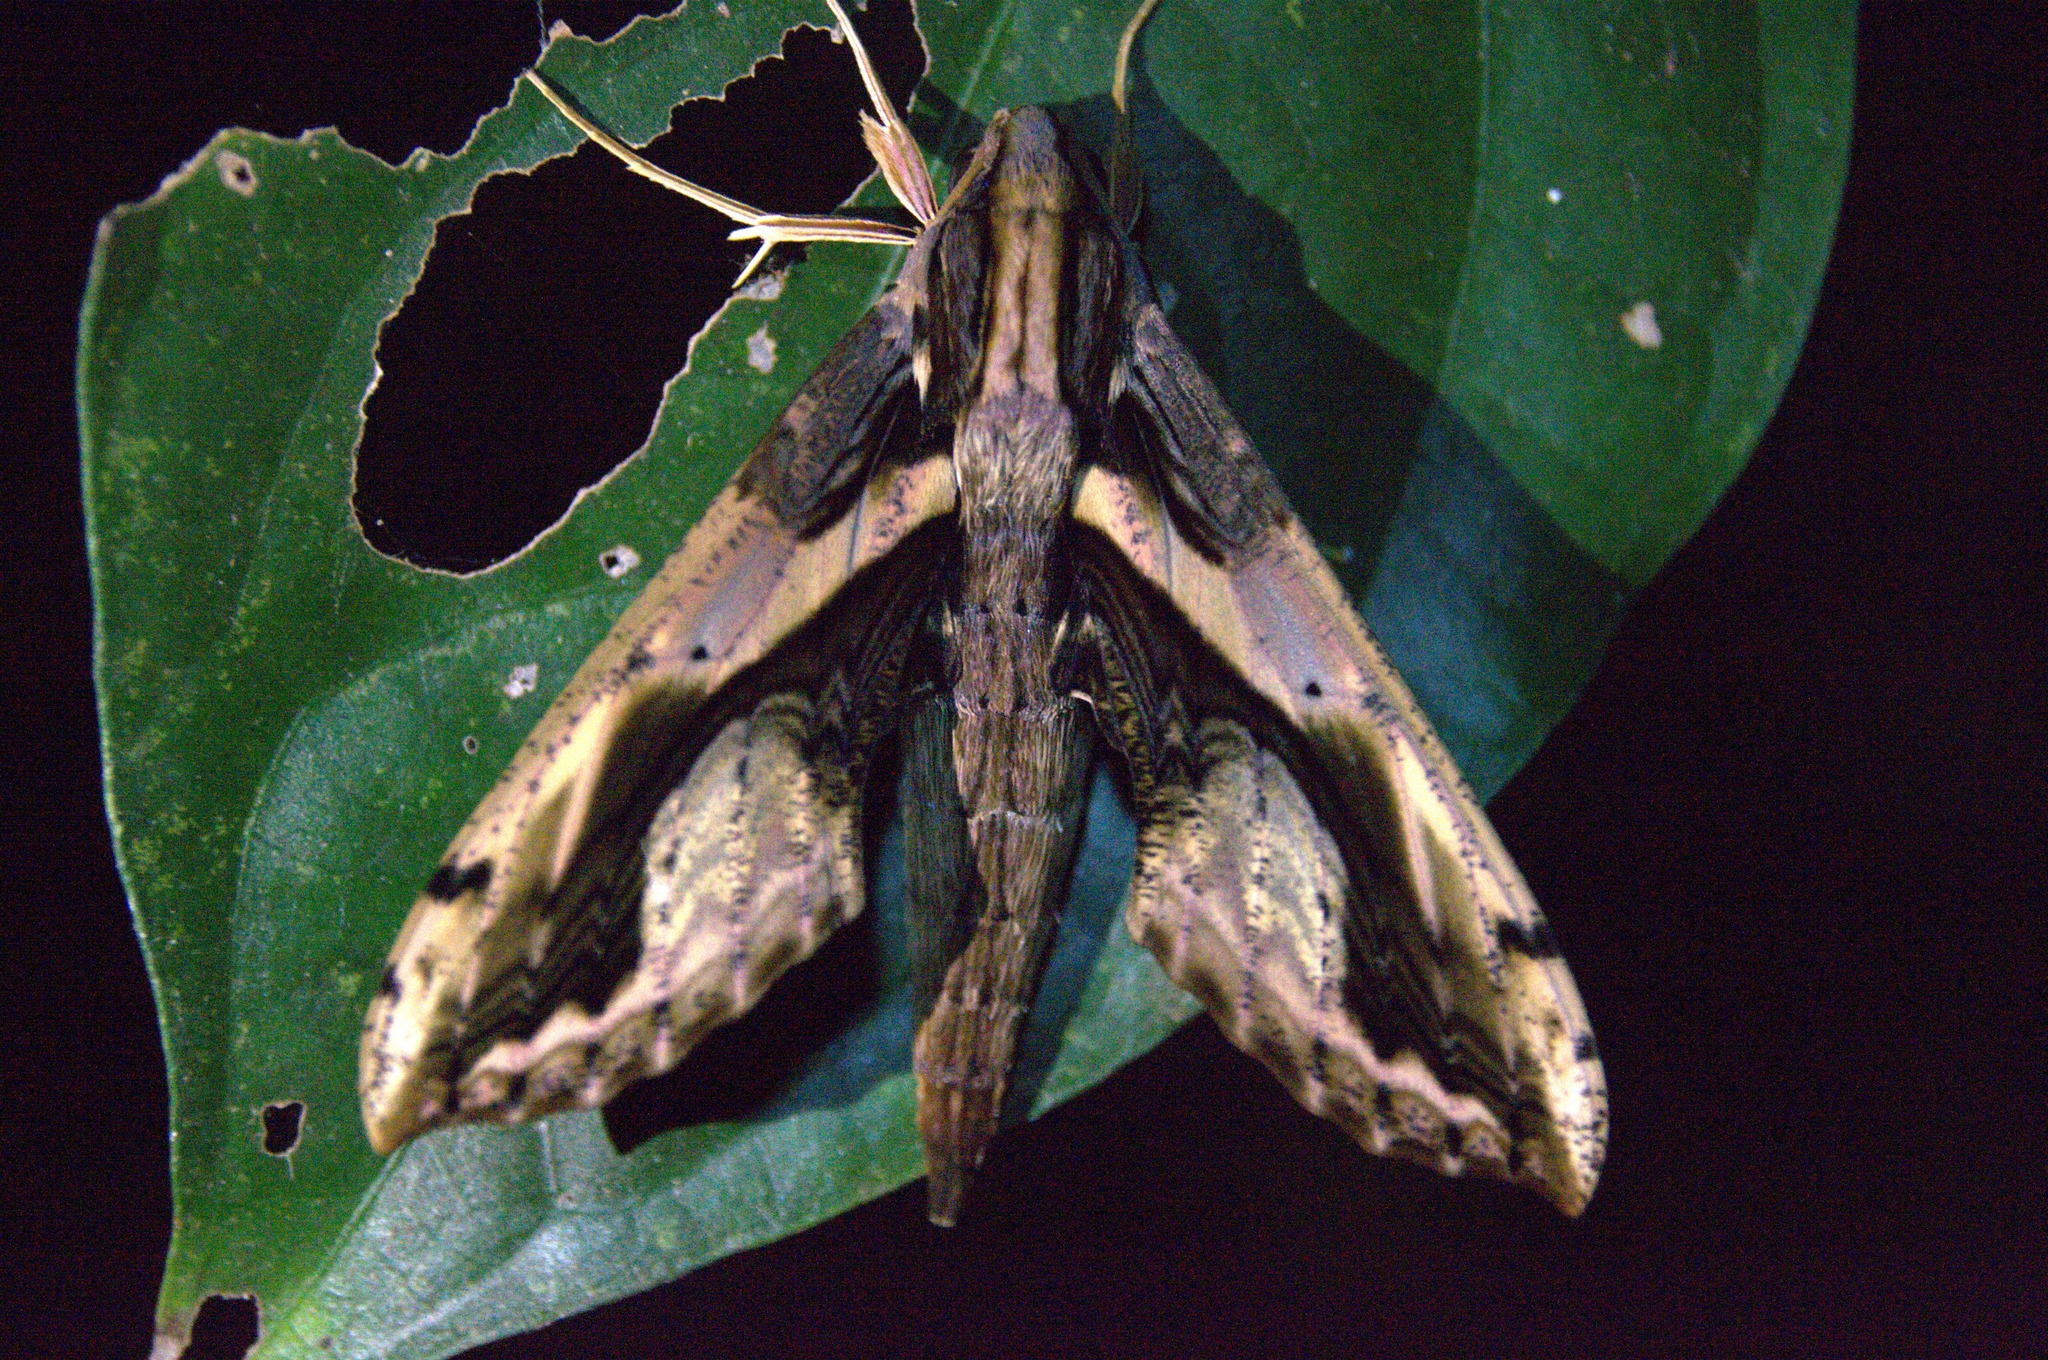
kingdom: Animalia
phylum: Arthropoda
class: Insecta
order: Lepidoptera
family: Sphingidae
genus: Xylophanes
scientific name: Xylophanes ceratomioides
